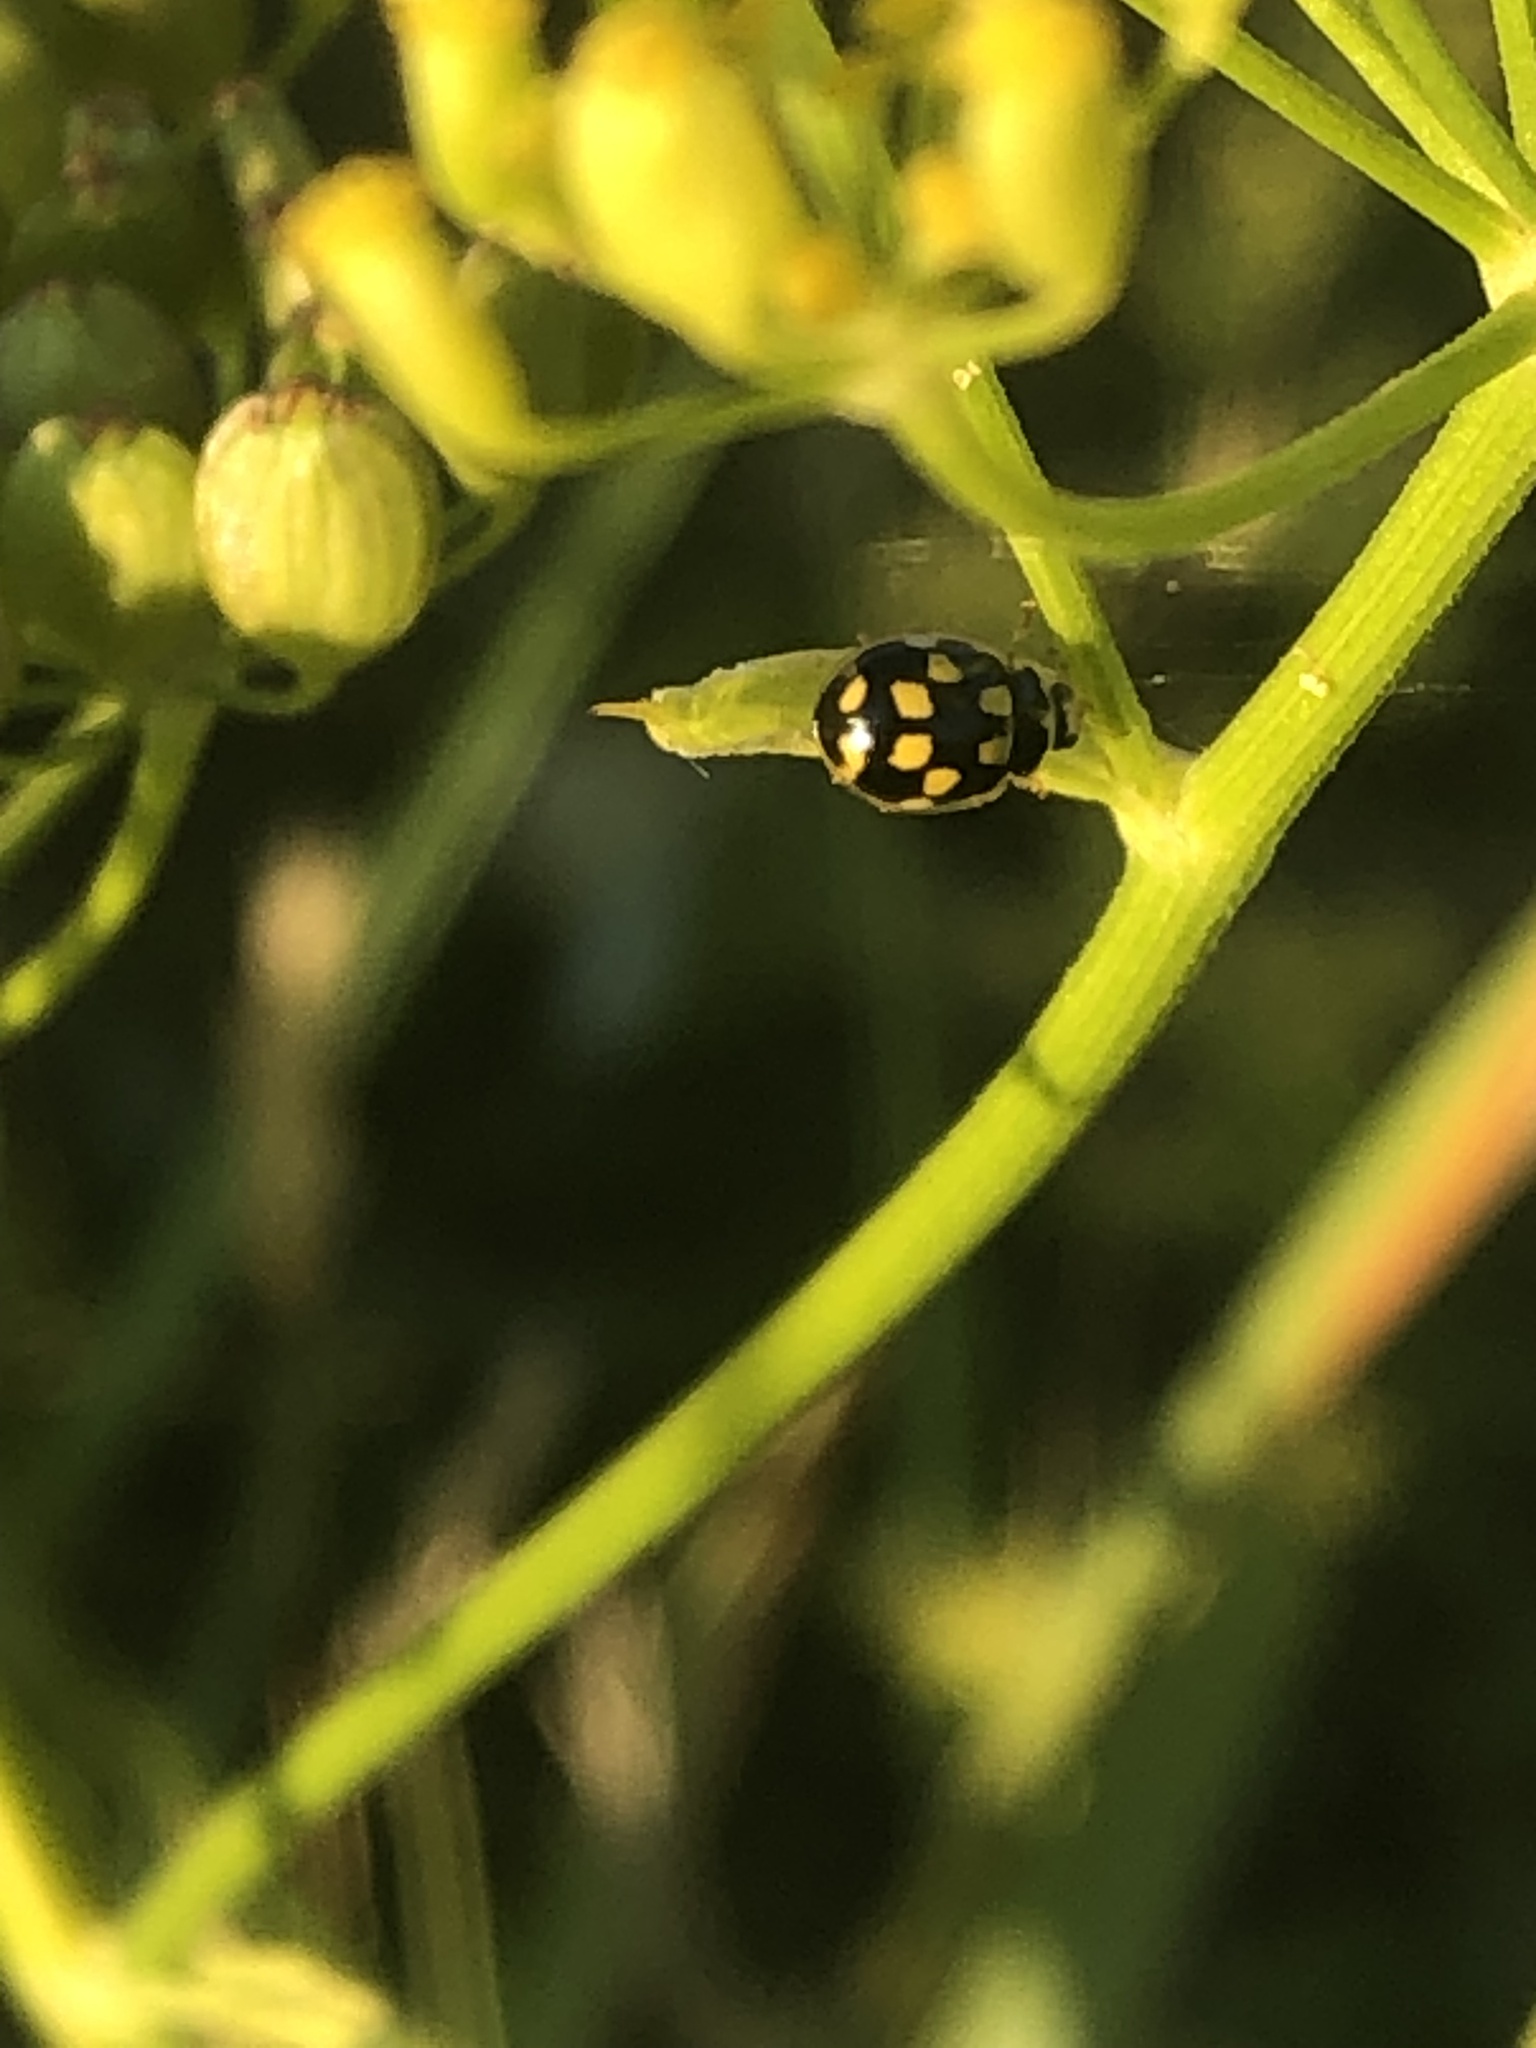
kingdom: Animalia
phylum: Arthropoda
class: Insecta
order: Coleoptera
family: Coccinellidae
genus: Propylaea
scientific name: Propylaea quatuordecimpunctata
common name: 14-spotted ladybird beetle
